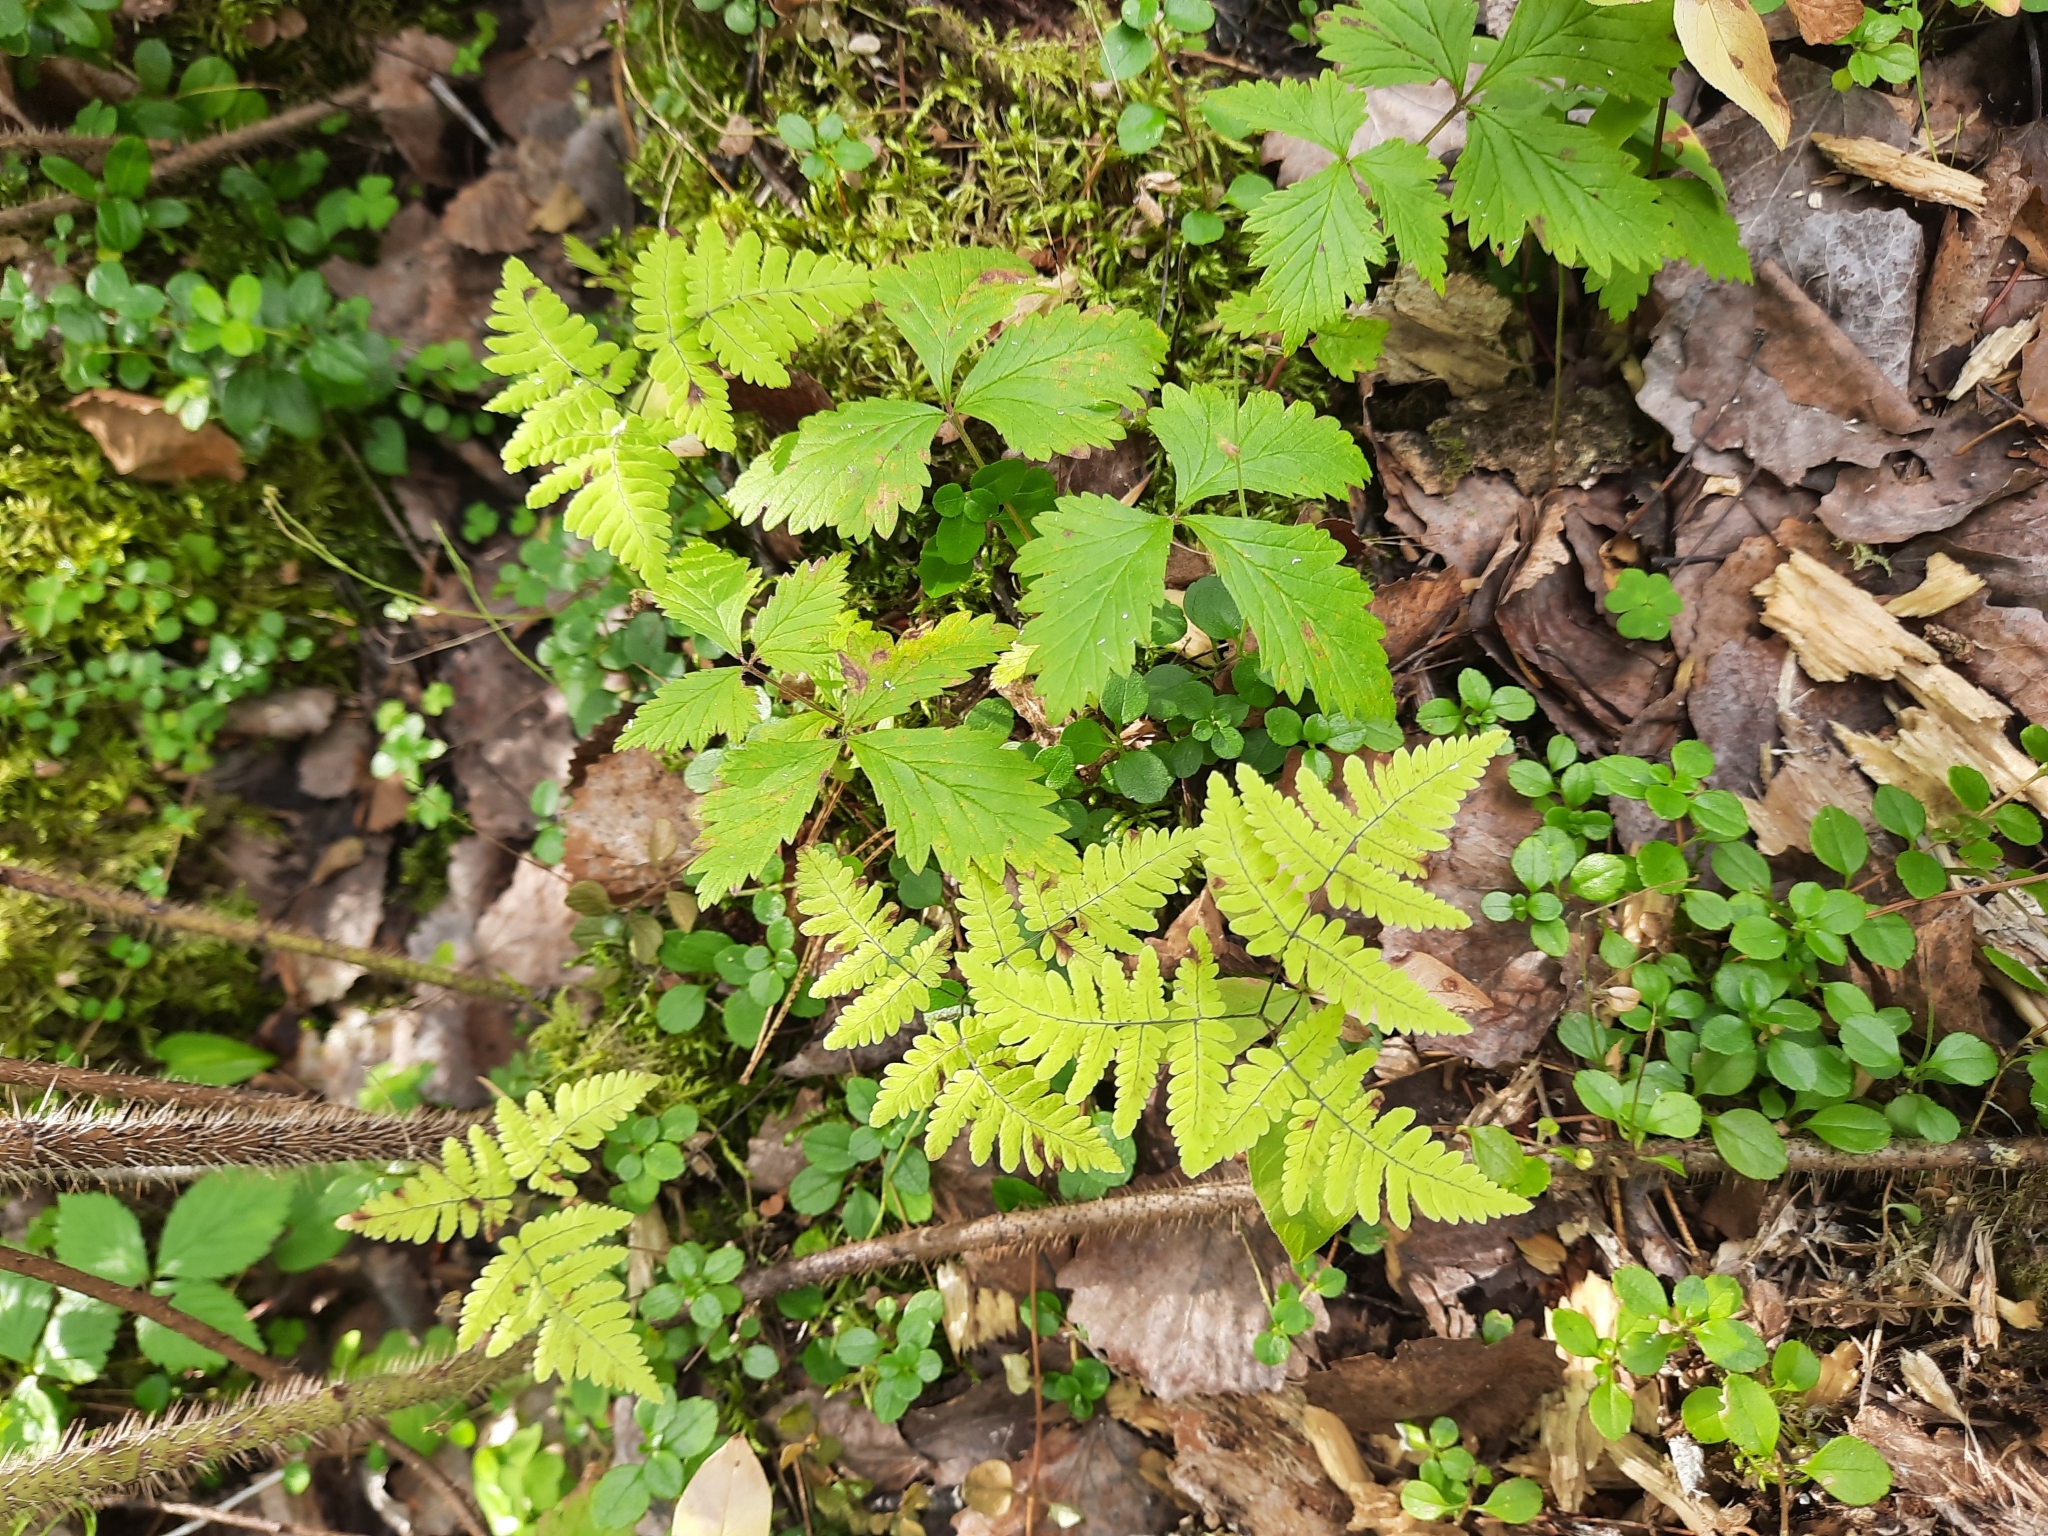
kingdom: Plantae
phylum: Tracheophyta
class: Polypodiopsida
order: Polypodiales
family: Cystopteridaceae
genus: Gymnocarpium
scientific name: Gymnocarpium dryopteris
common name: Oak fern
